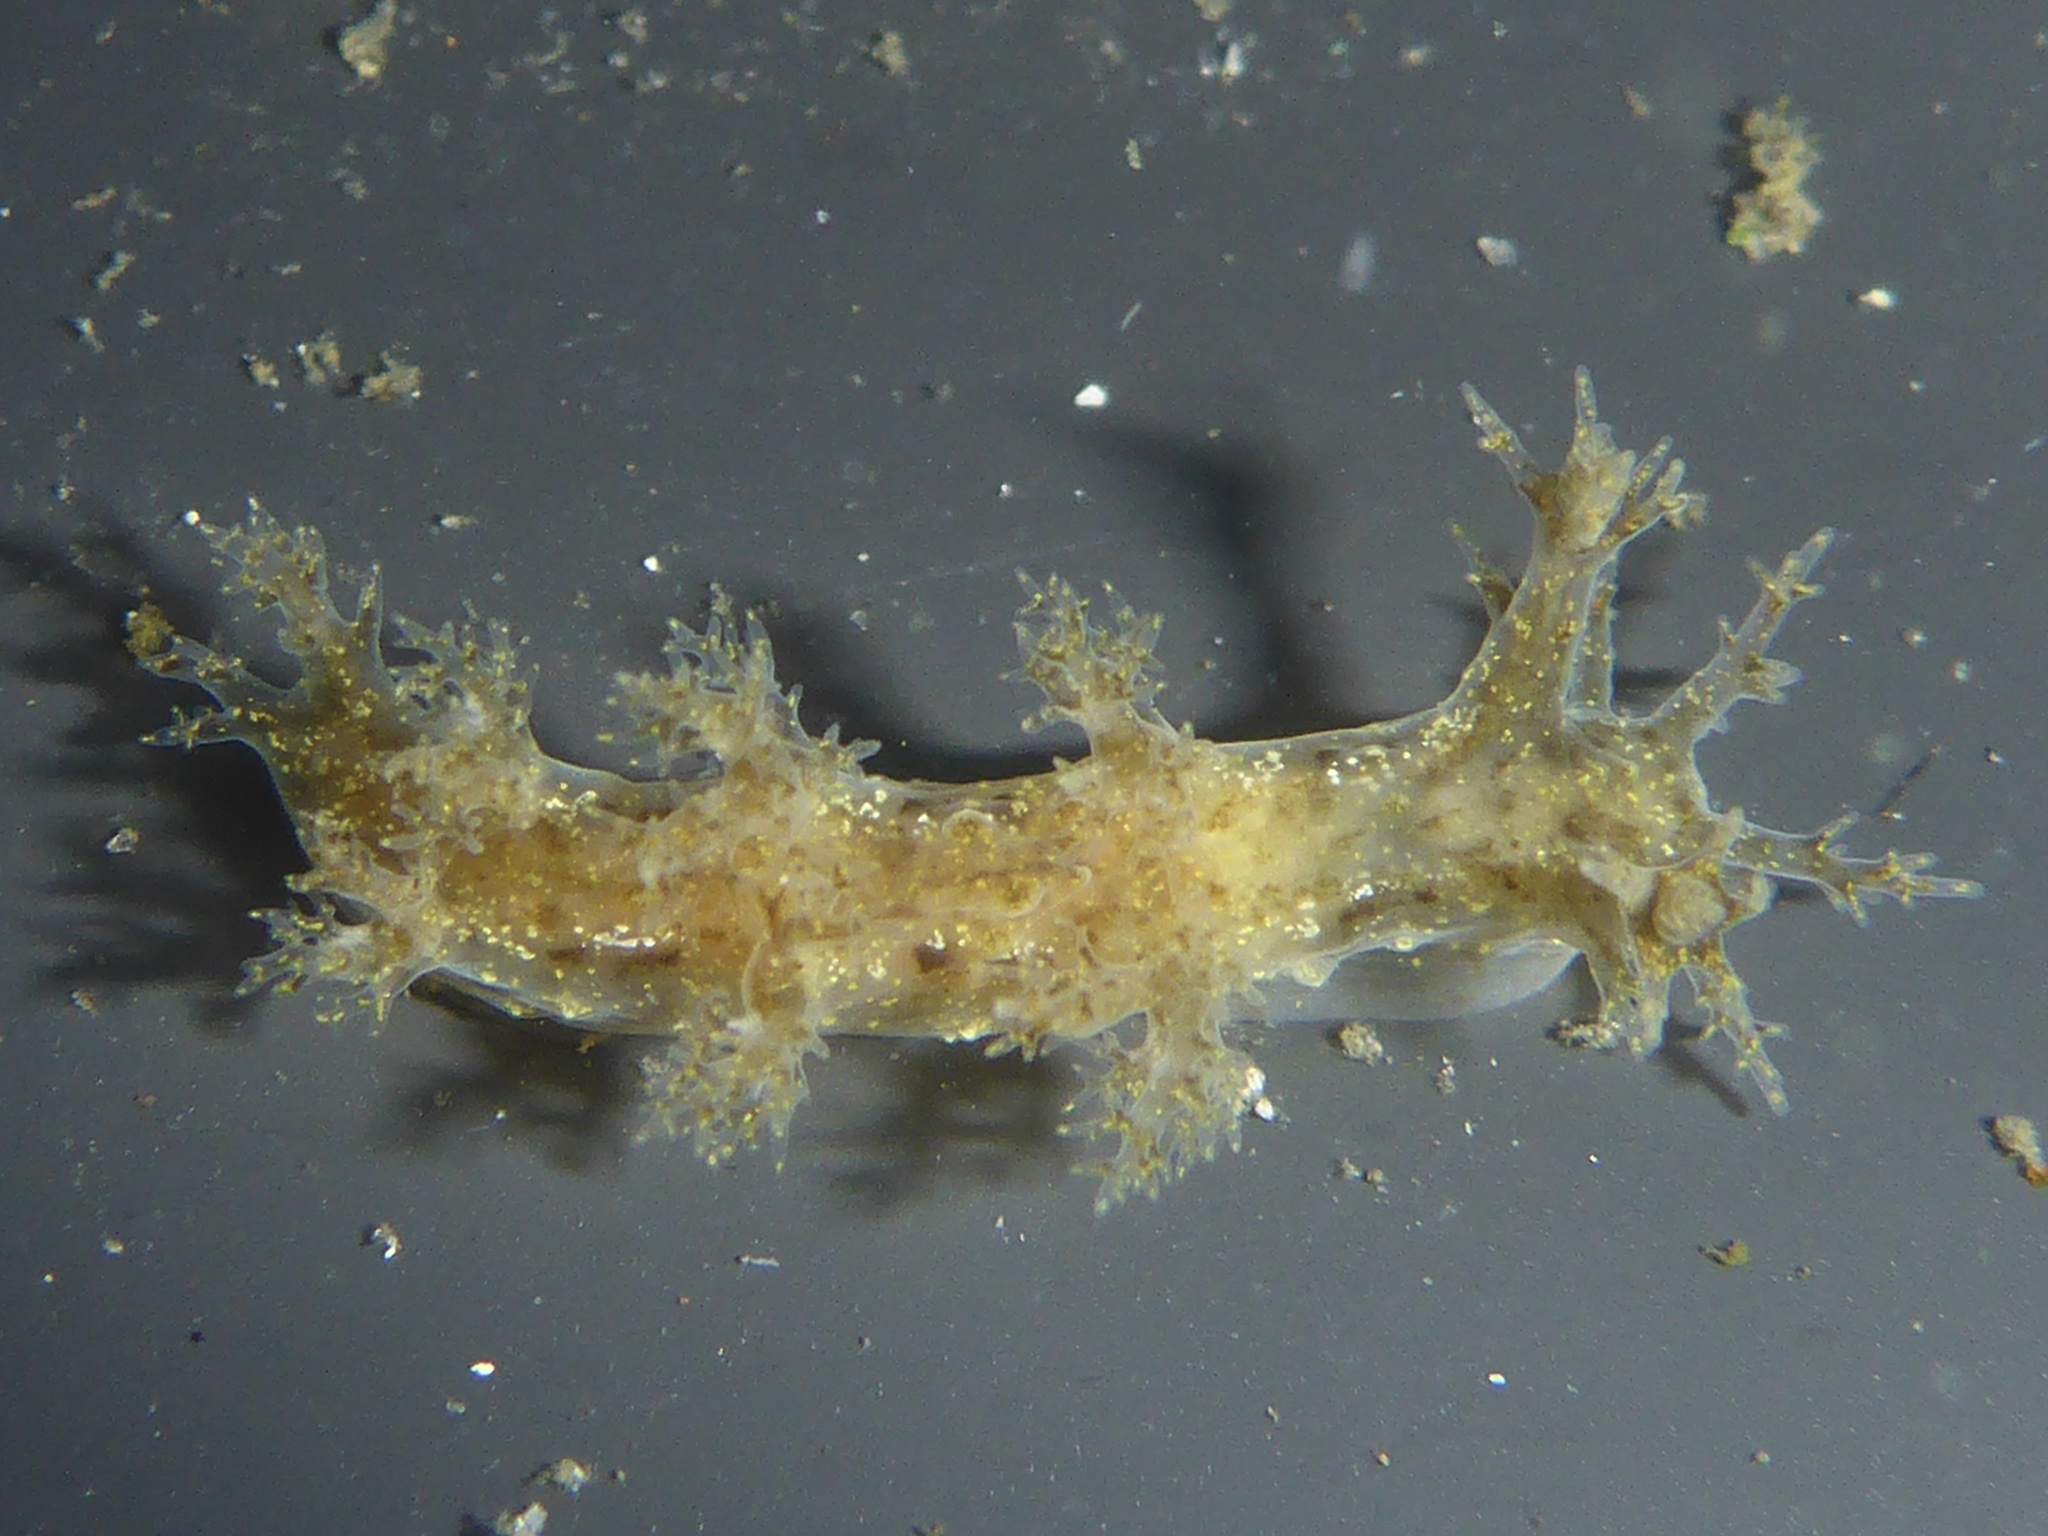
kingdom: Animalia
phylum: Mollusca
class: Gastropoda
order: Nudibranchia
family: Dendronotidae
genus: Dendronotus
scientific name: Dendronotus venustus
